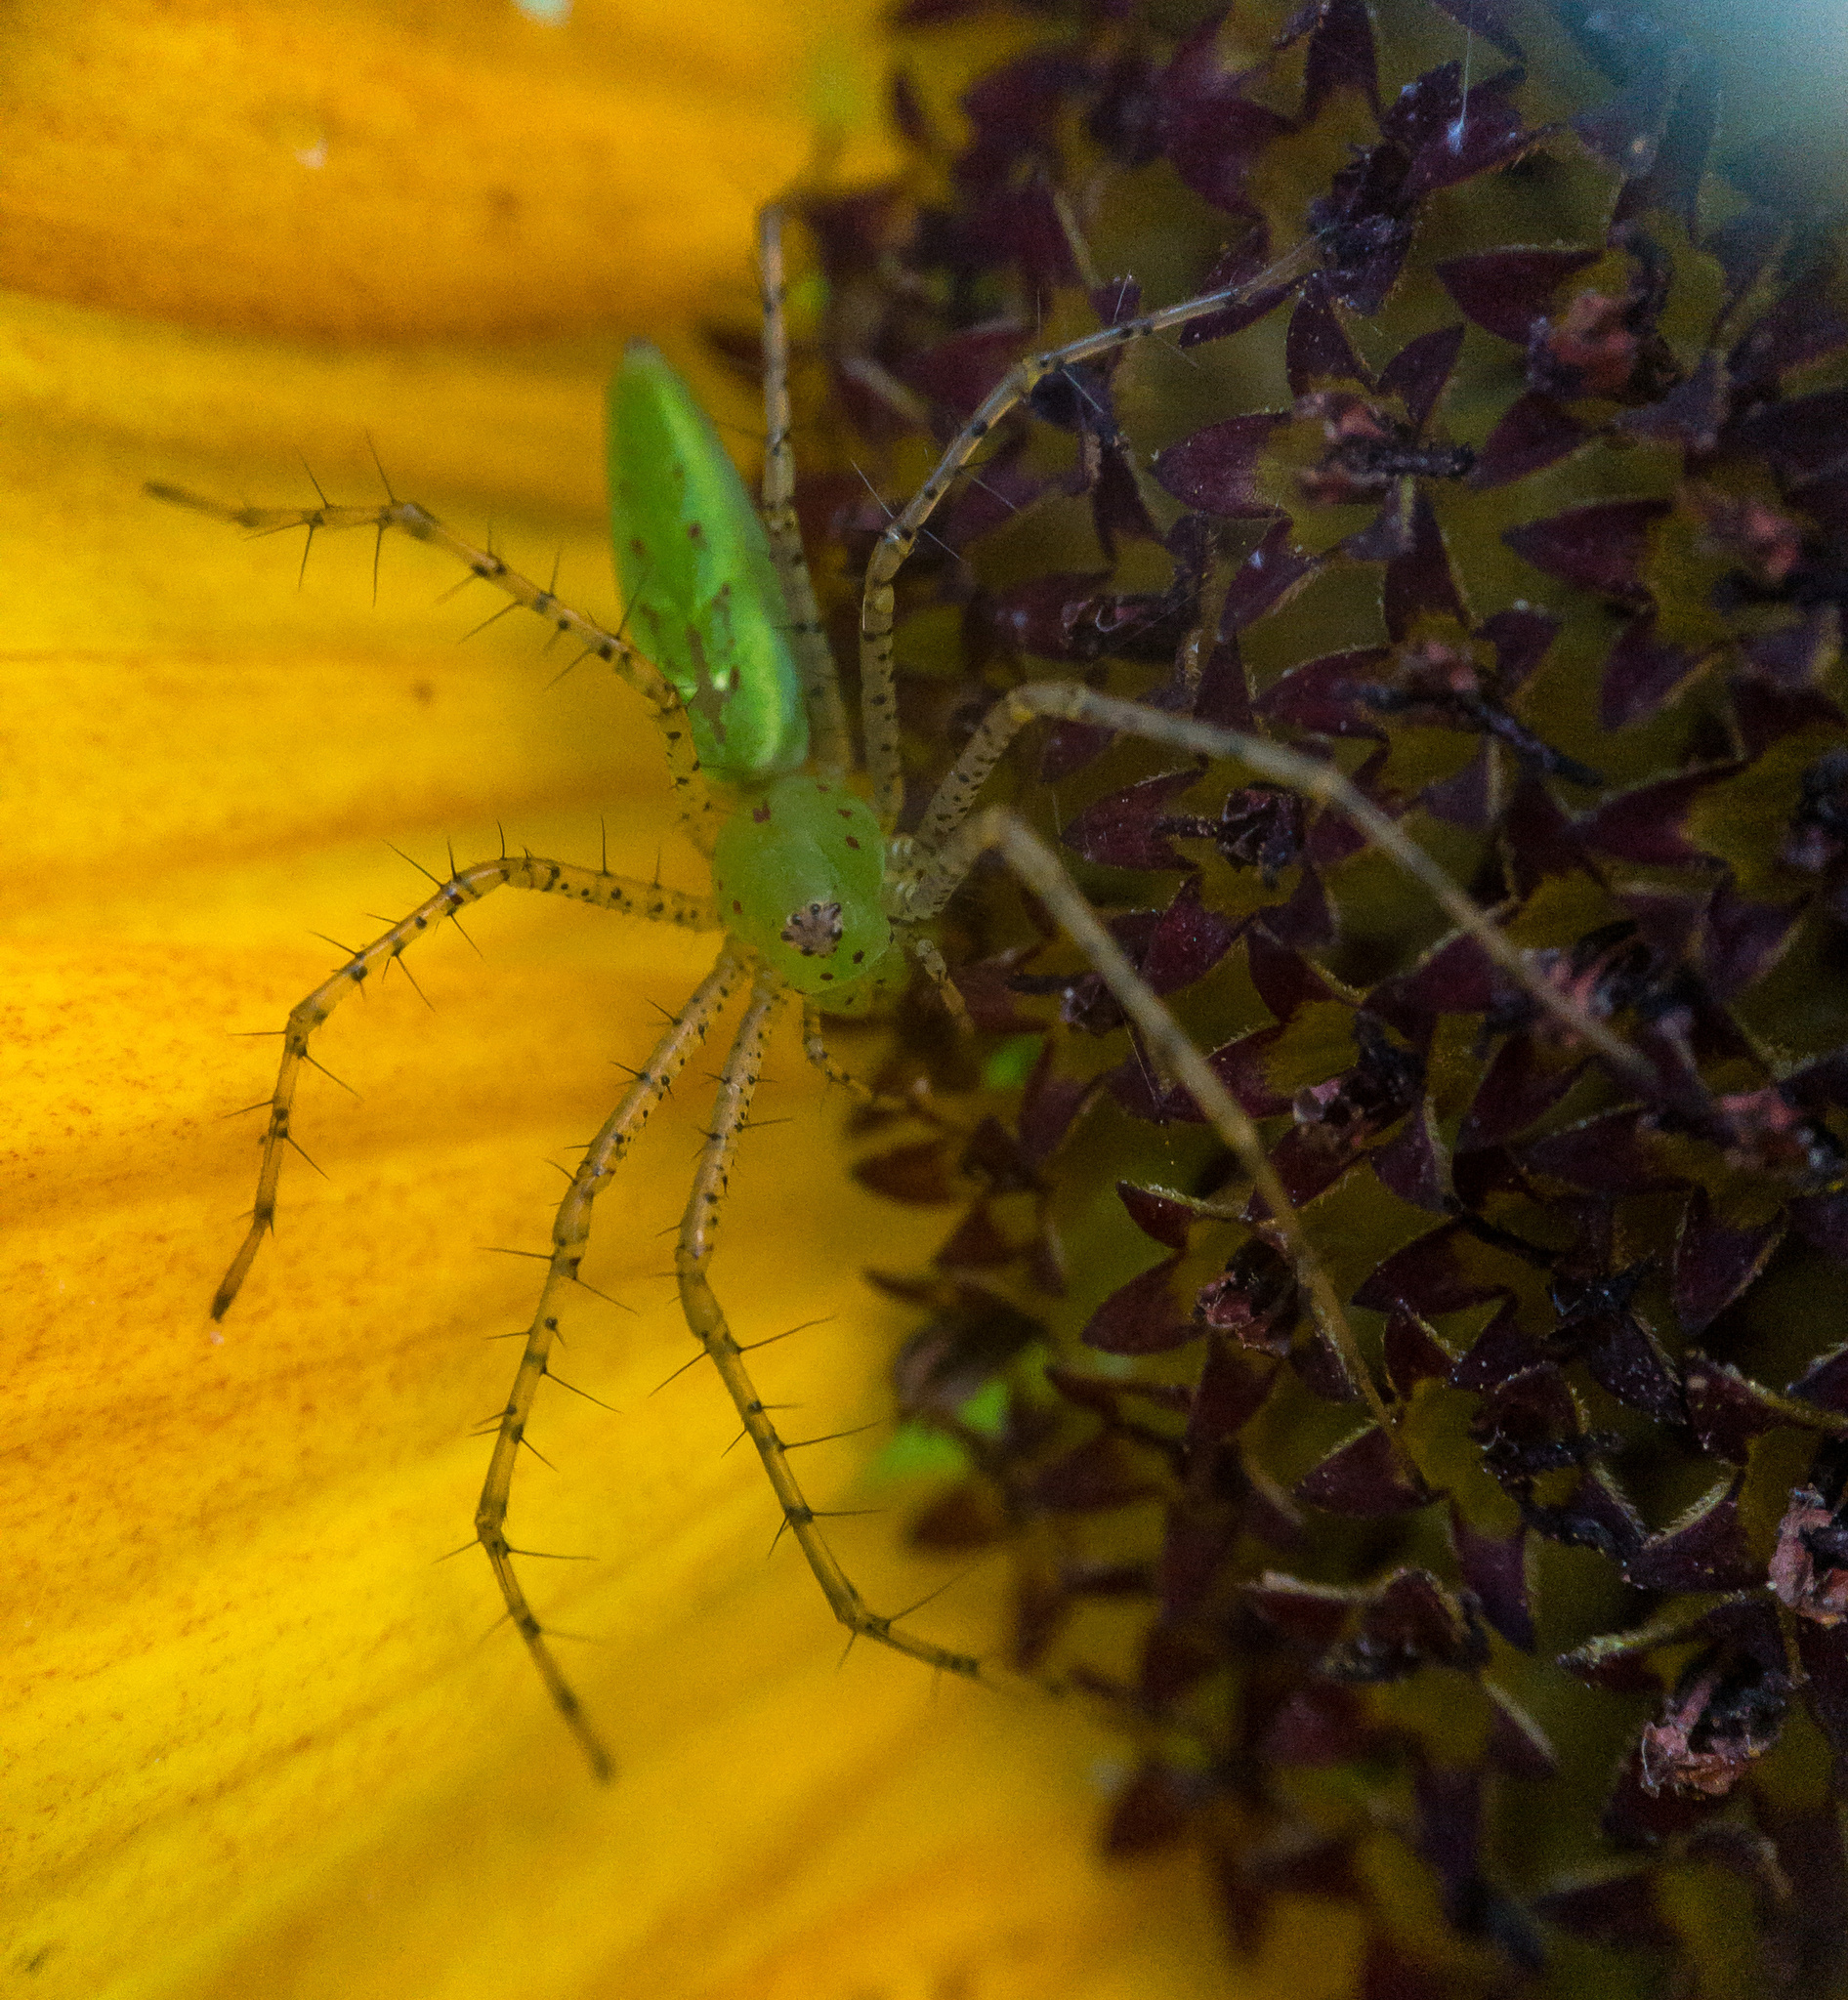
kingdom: Animalia
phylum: Arthropoda
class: Arachnida
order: Araneae
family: Oxyopidae
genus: Peucetia
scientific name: Peucetia viridans
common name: Lynx spiders
